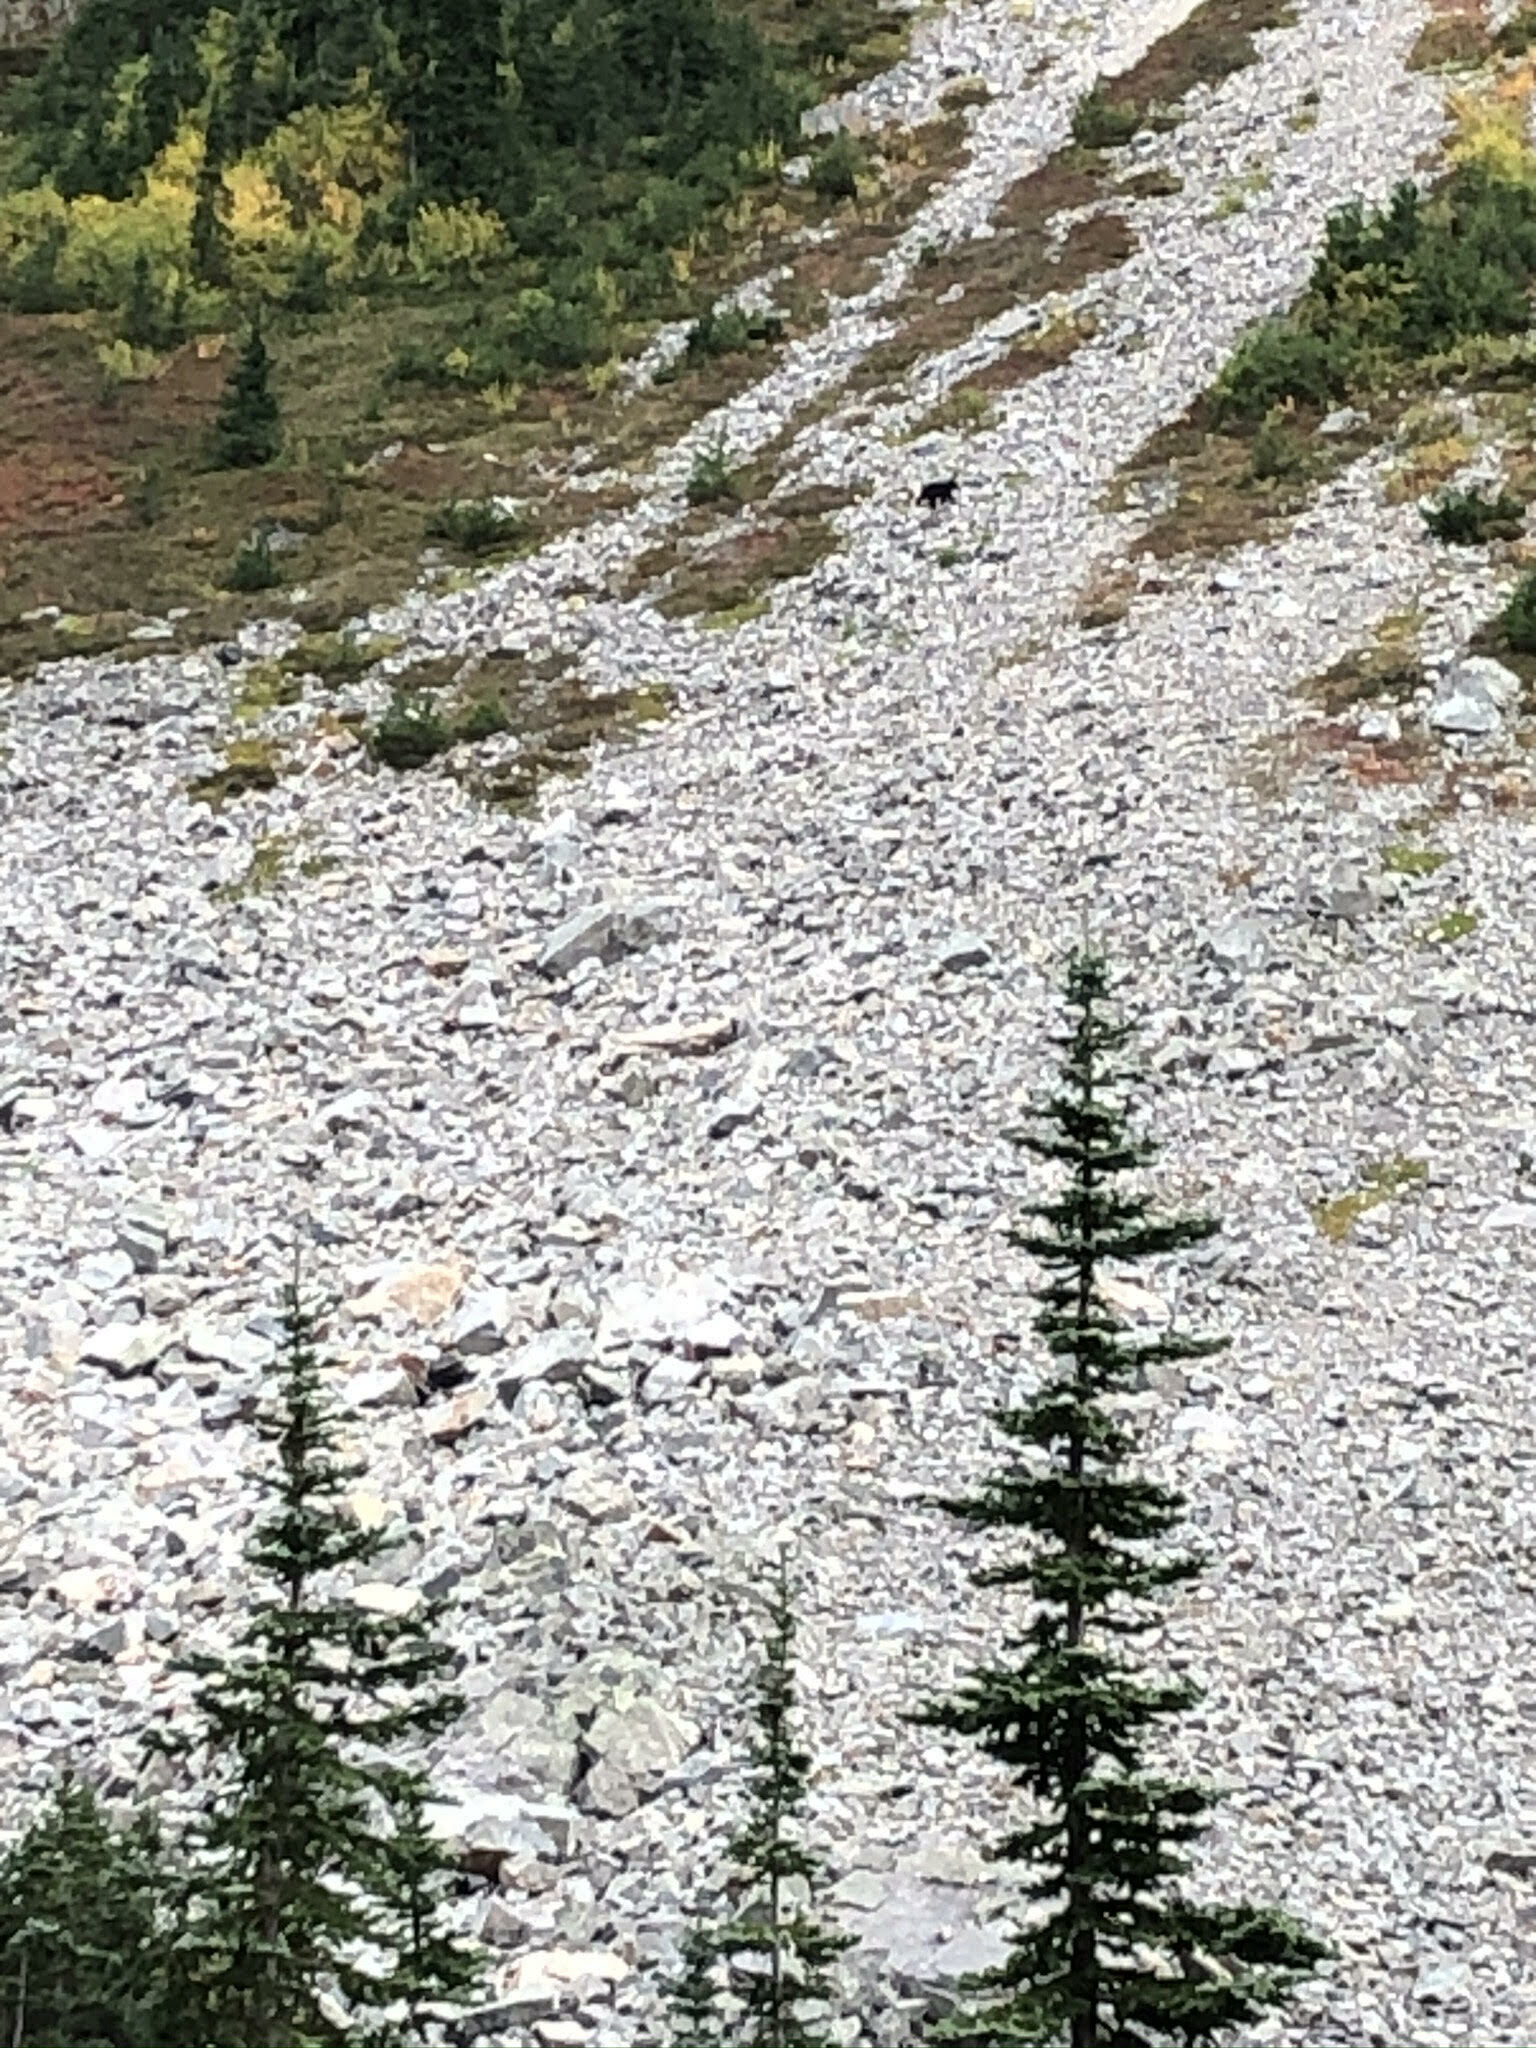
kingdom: Animalia
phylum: Chordata
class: Mammalia
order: Carnivora
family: Ursidae
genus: Ursus
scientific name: Ursus americanus
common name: American black bear
